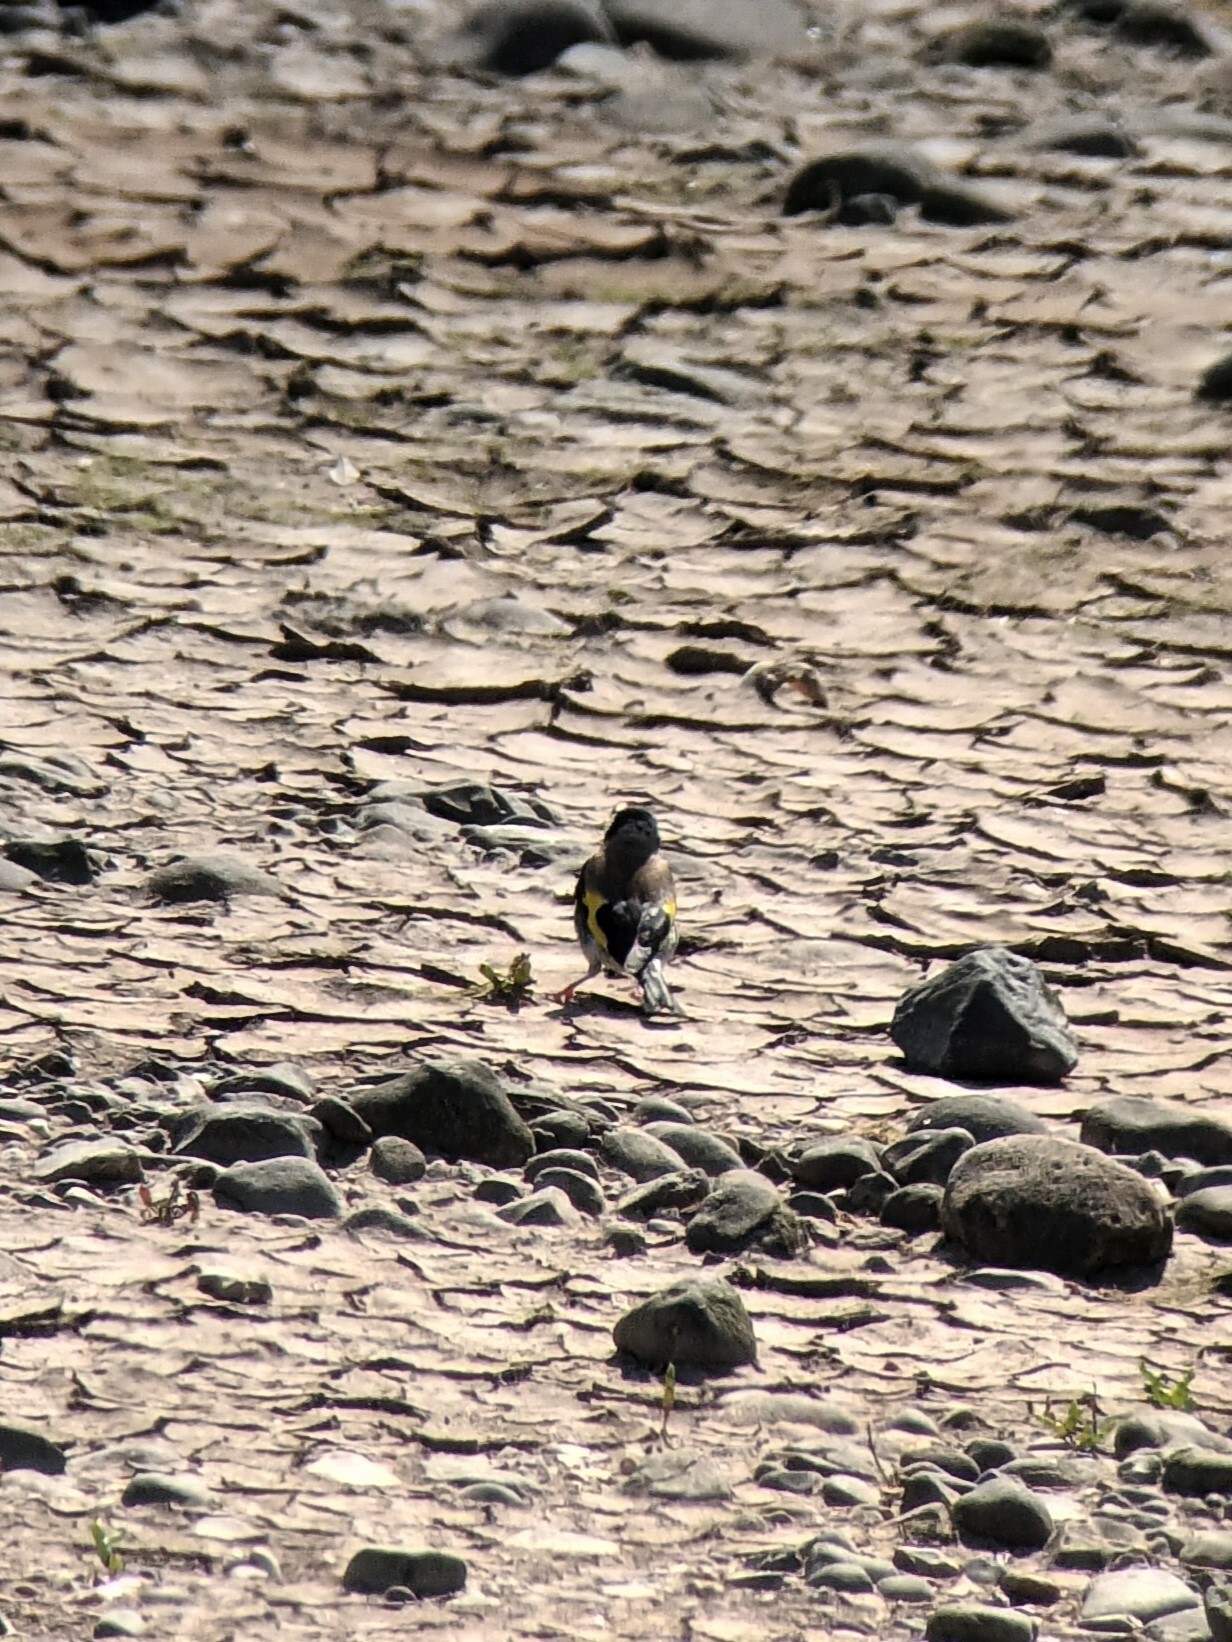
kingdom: Animalia
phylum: Chordata
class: Aves
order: Passeriformes
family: Fringillidae
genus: Carduelis
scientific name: Carduelis carduelis
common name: European goldfinch
